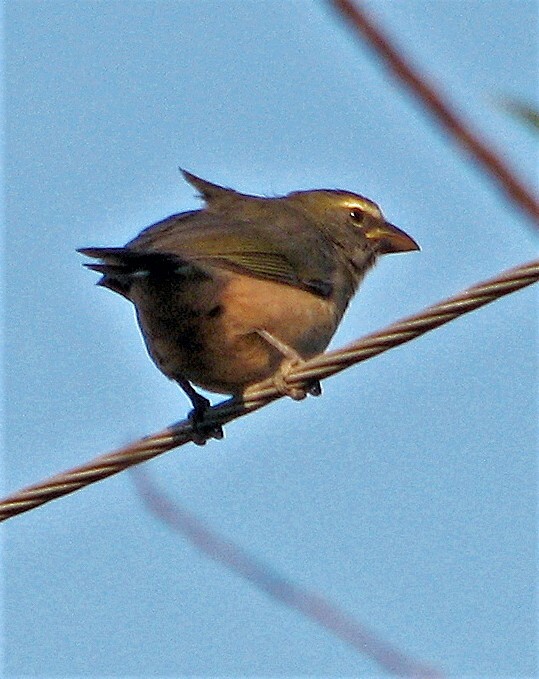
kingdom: Animalia
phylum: Chordata
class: Aves
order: Passeriformes
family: Thraupidae
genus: Saltator
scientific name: Saltator coerulescens
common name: Grayish saltator
